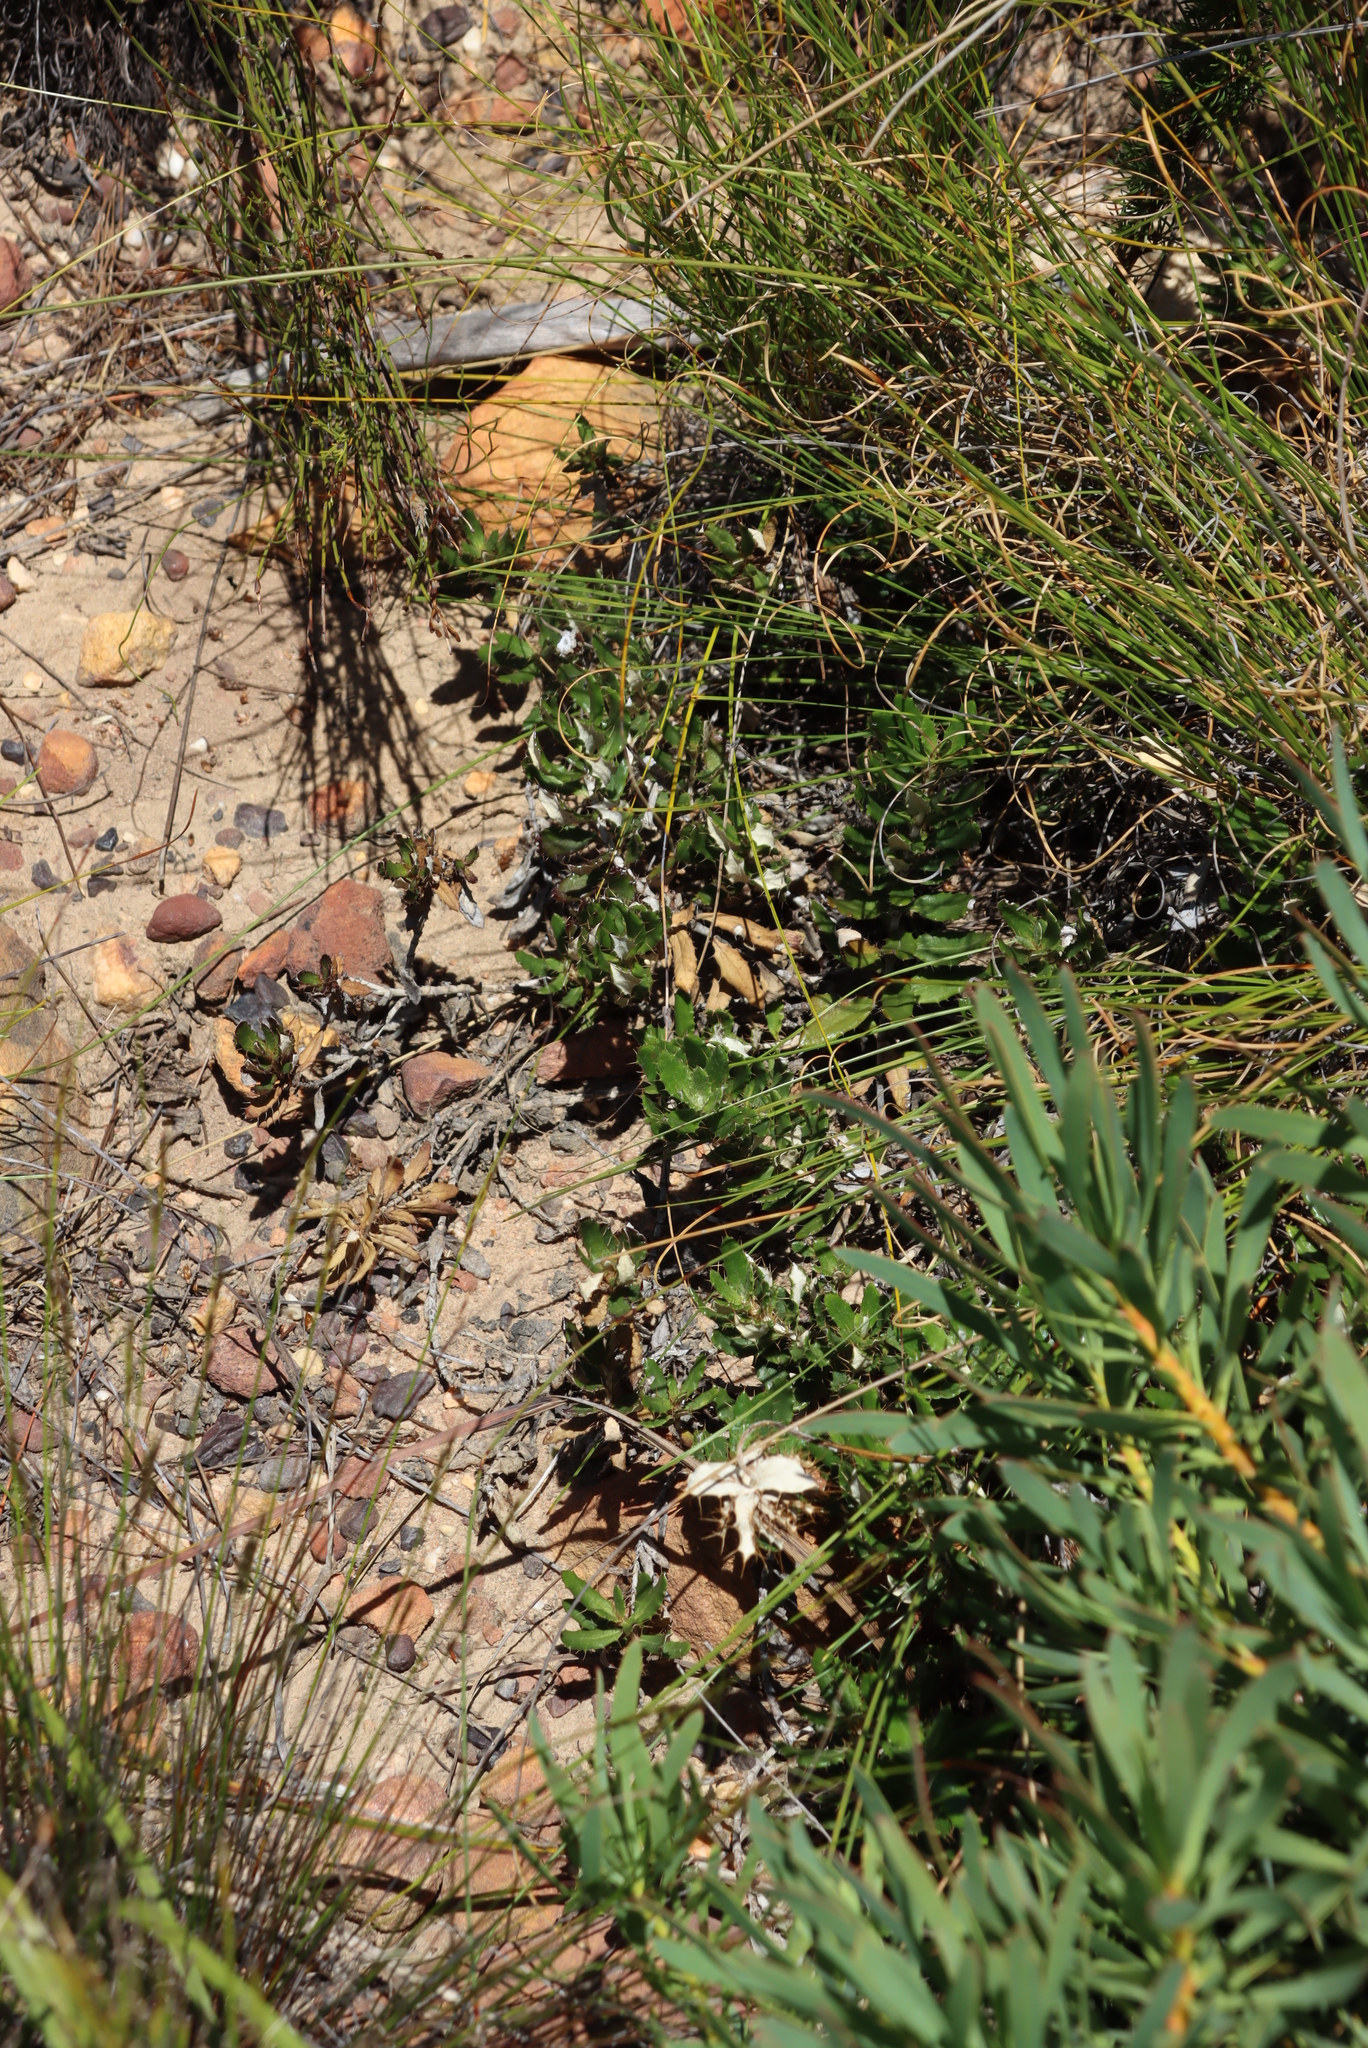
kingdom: Plantae
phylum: Tracheophyta
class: Magnoliopsida
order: Asterales
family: Asteraceae
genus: Berkheya
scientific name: Berkheya barbata
